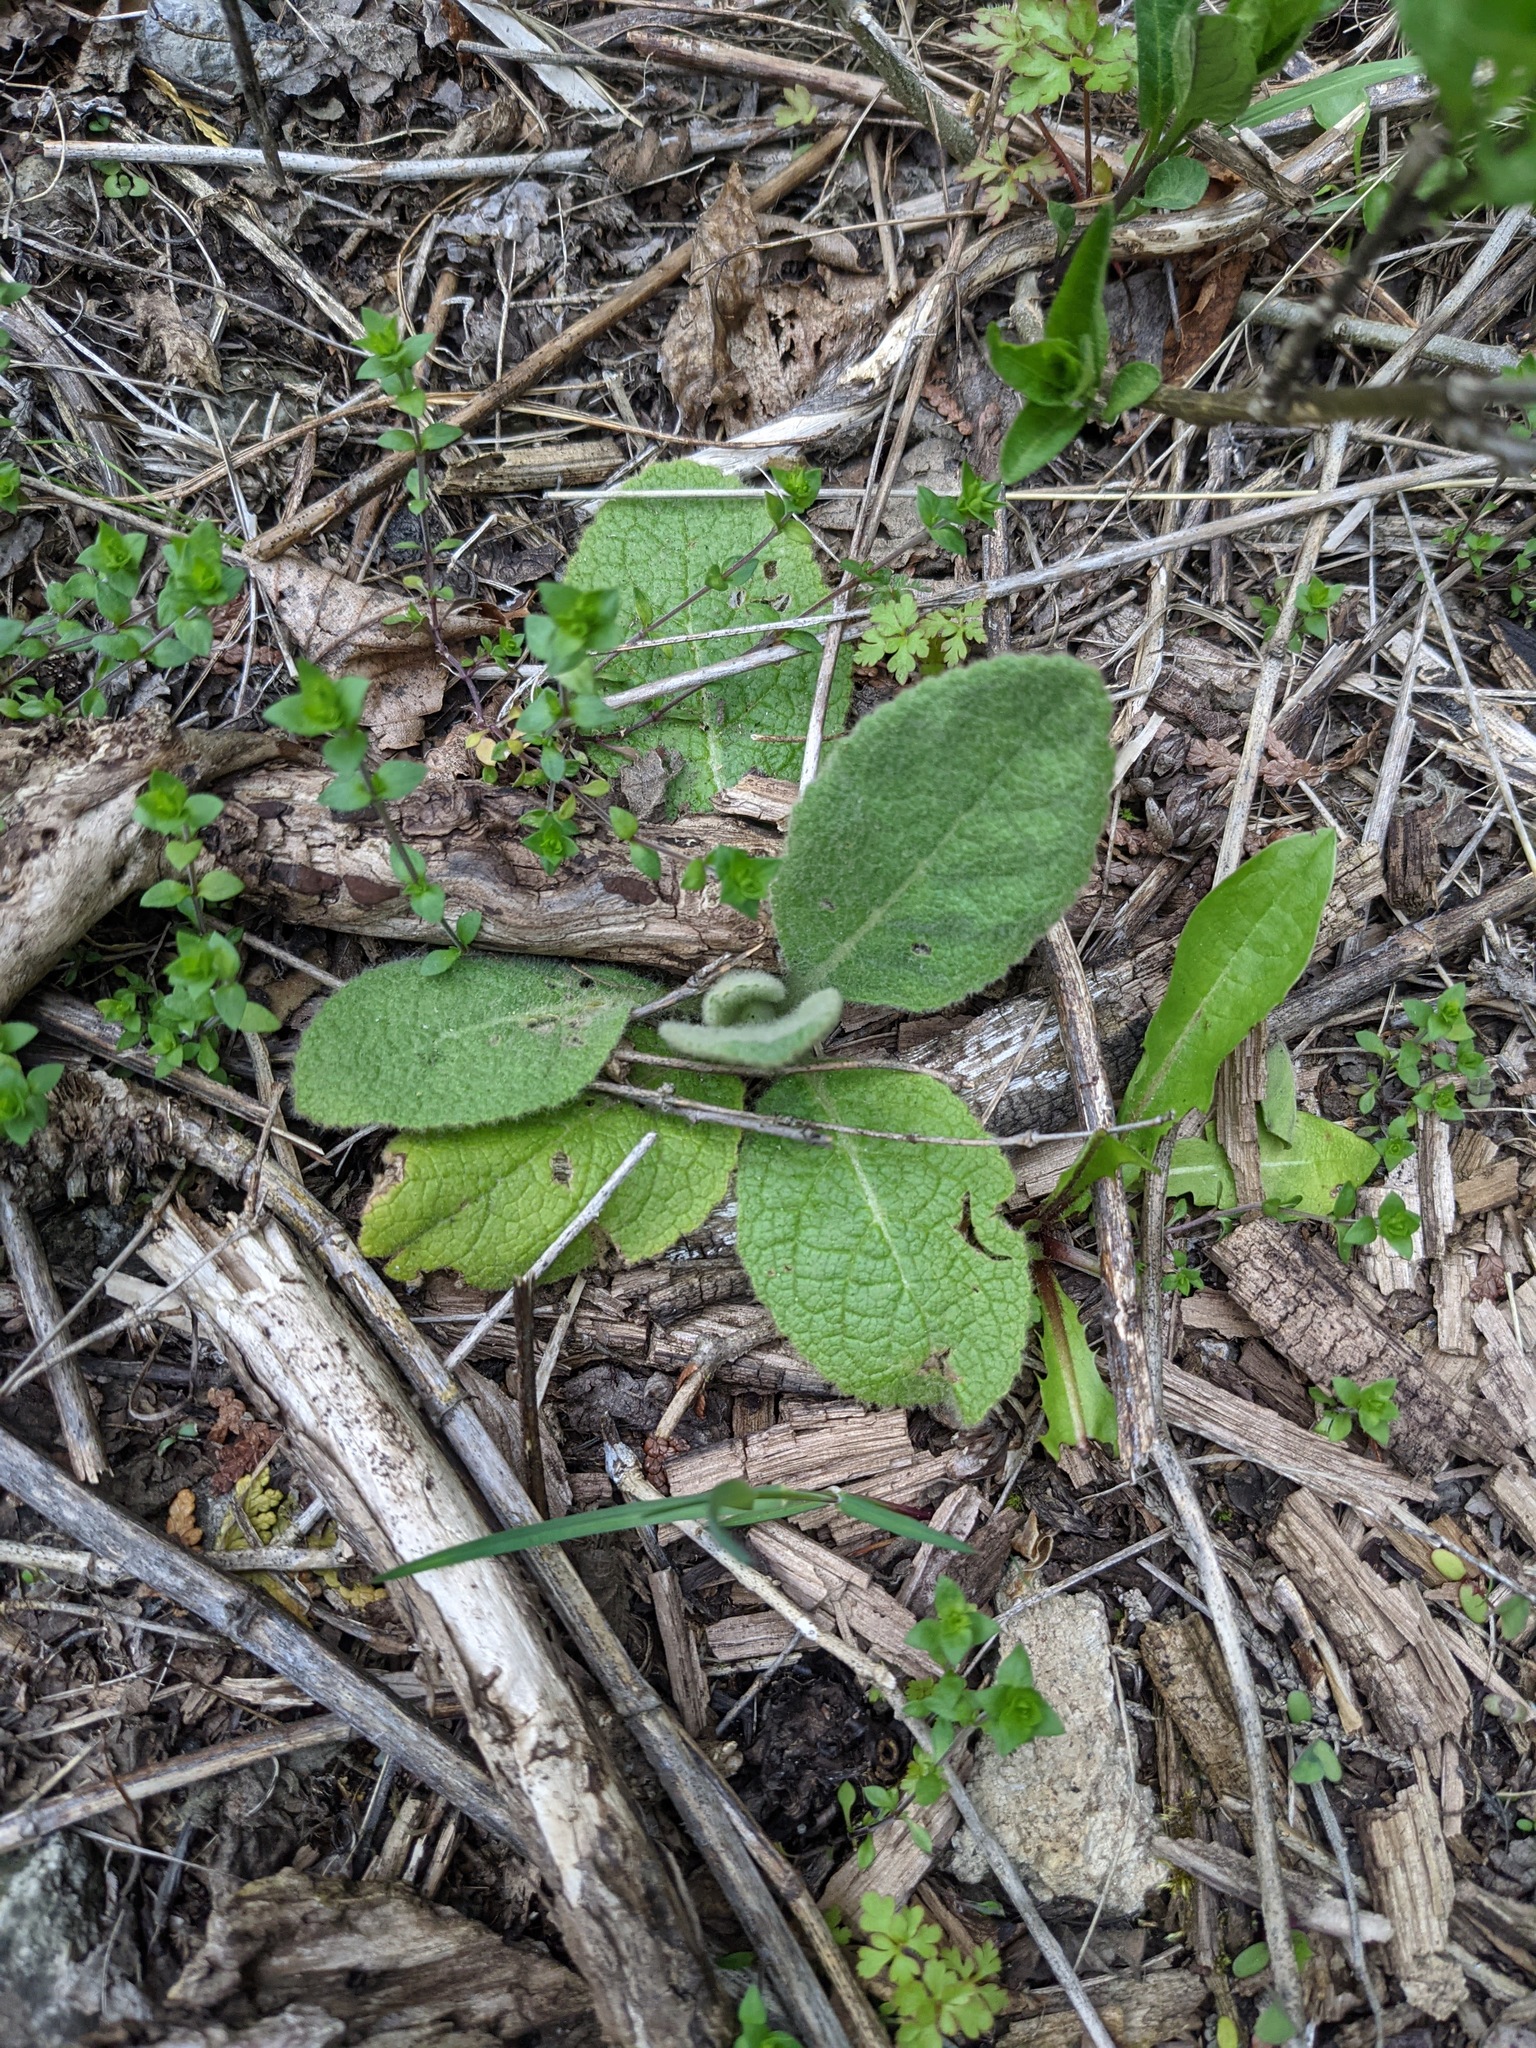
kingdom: Plantae
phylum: Tracheophyta
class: Magnoliopsida
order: Lamiales
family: Scrophulariaceae
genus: Verbascum
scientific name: Verbascum thapsus
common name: Common mullein
